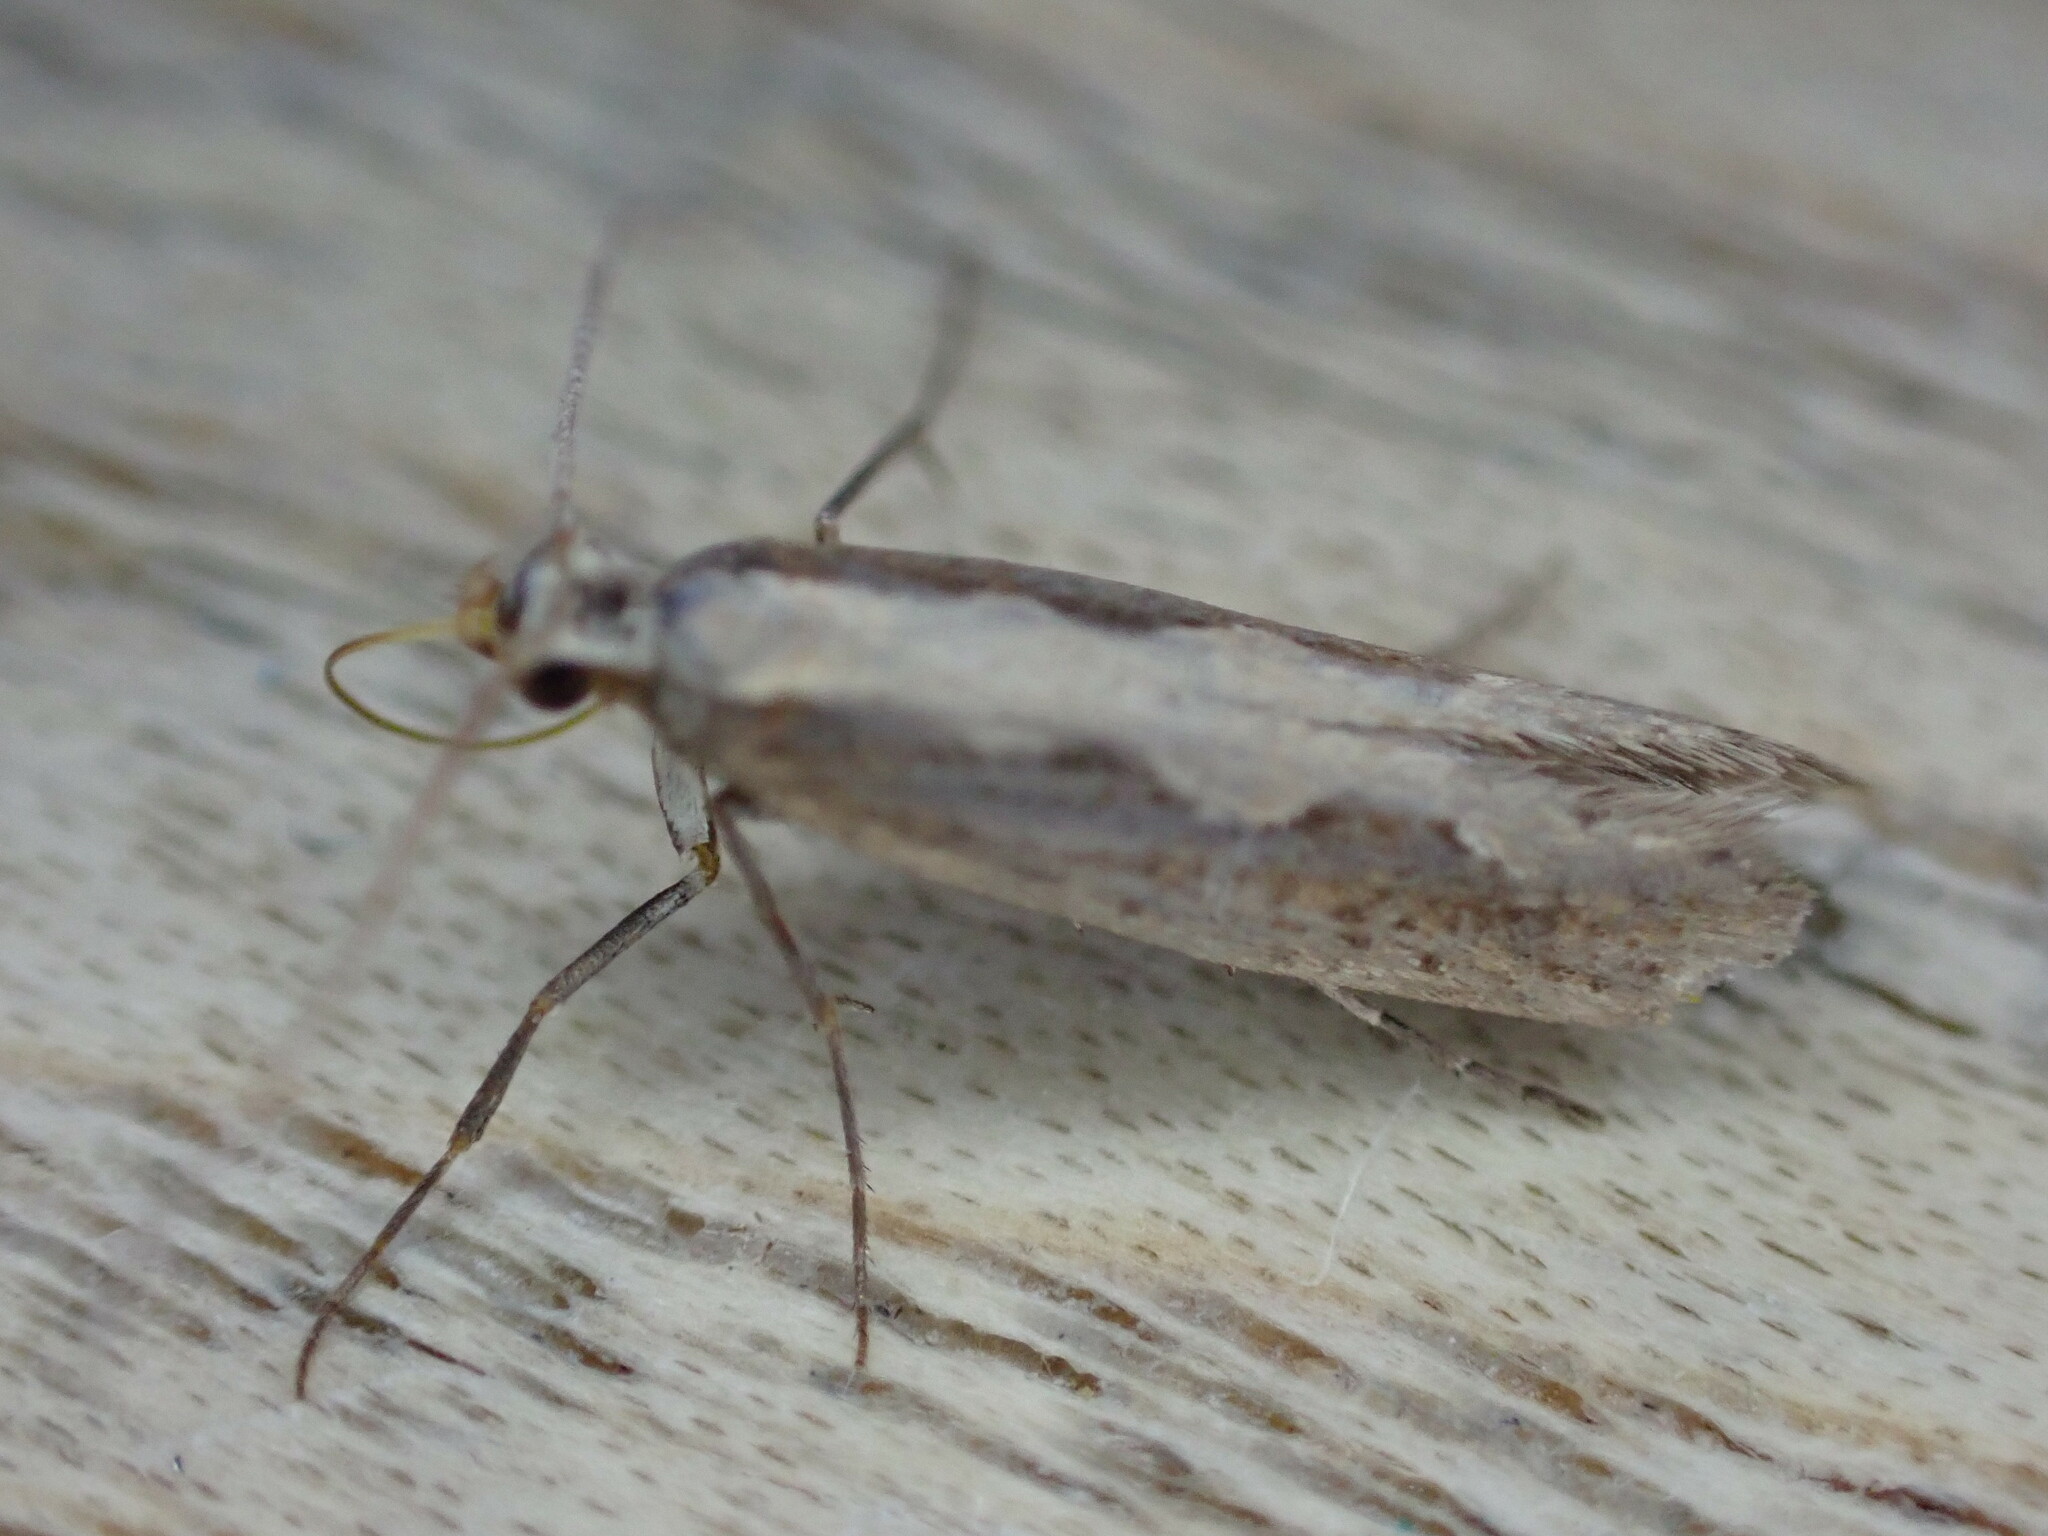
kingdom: Animalia
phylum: Arthropoda
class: Insecta
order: Lepidoptera
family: Plutellidae
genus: Plutella
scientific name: Plutella xylostella
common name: Diamond-back moth
